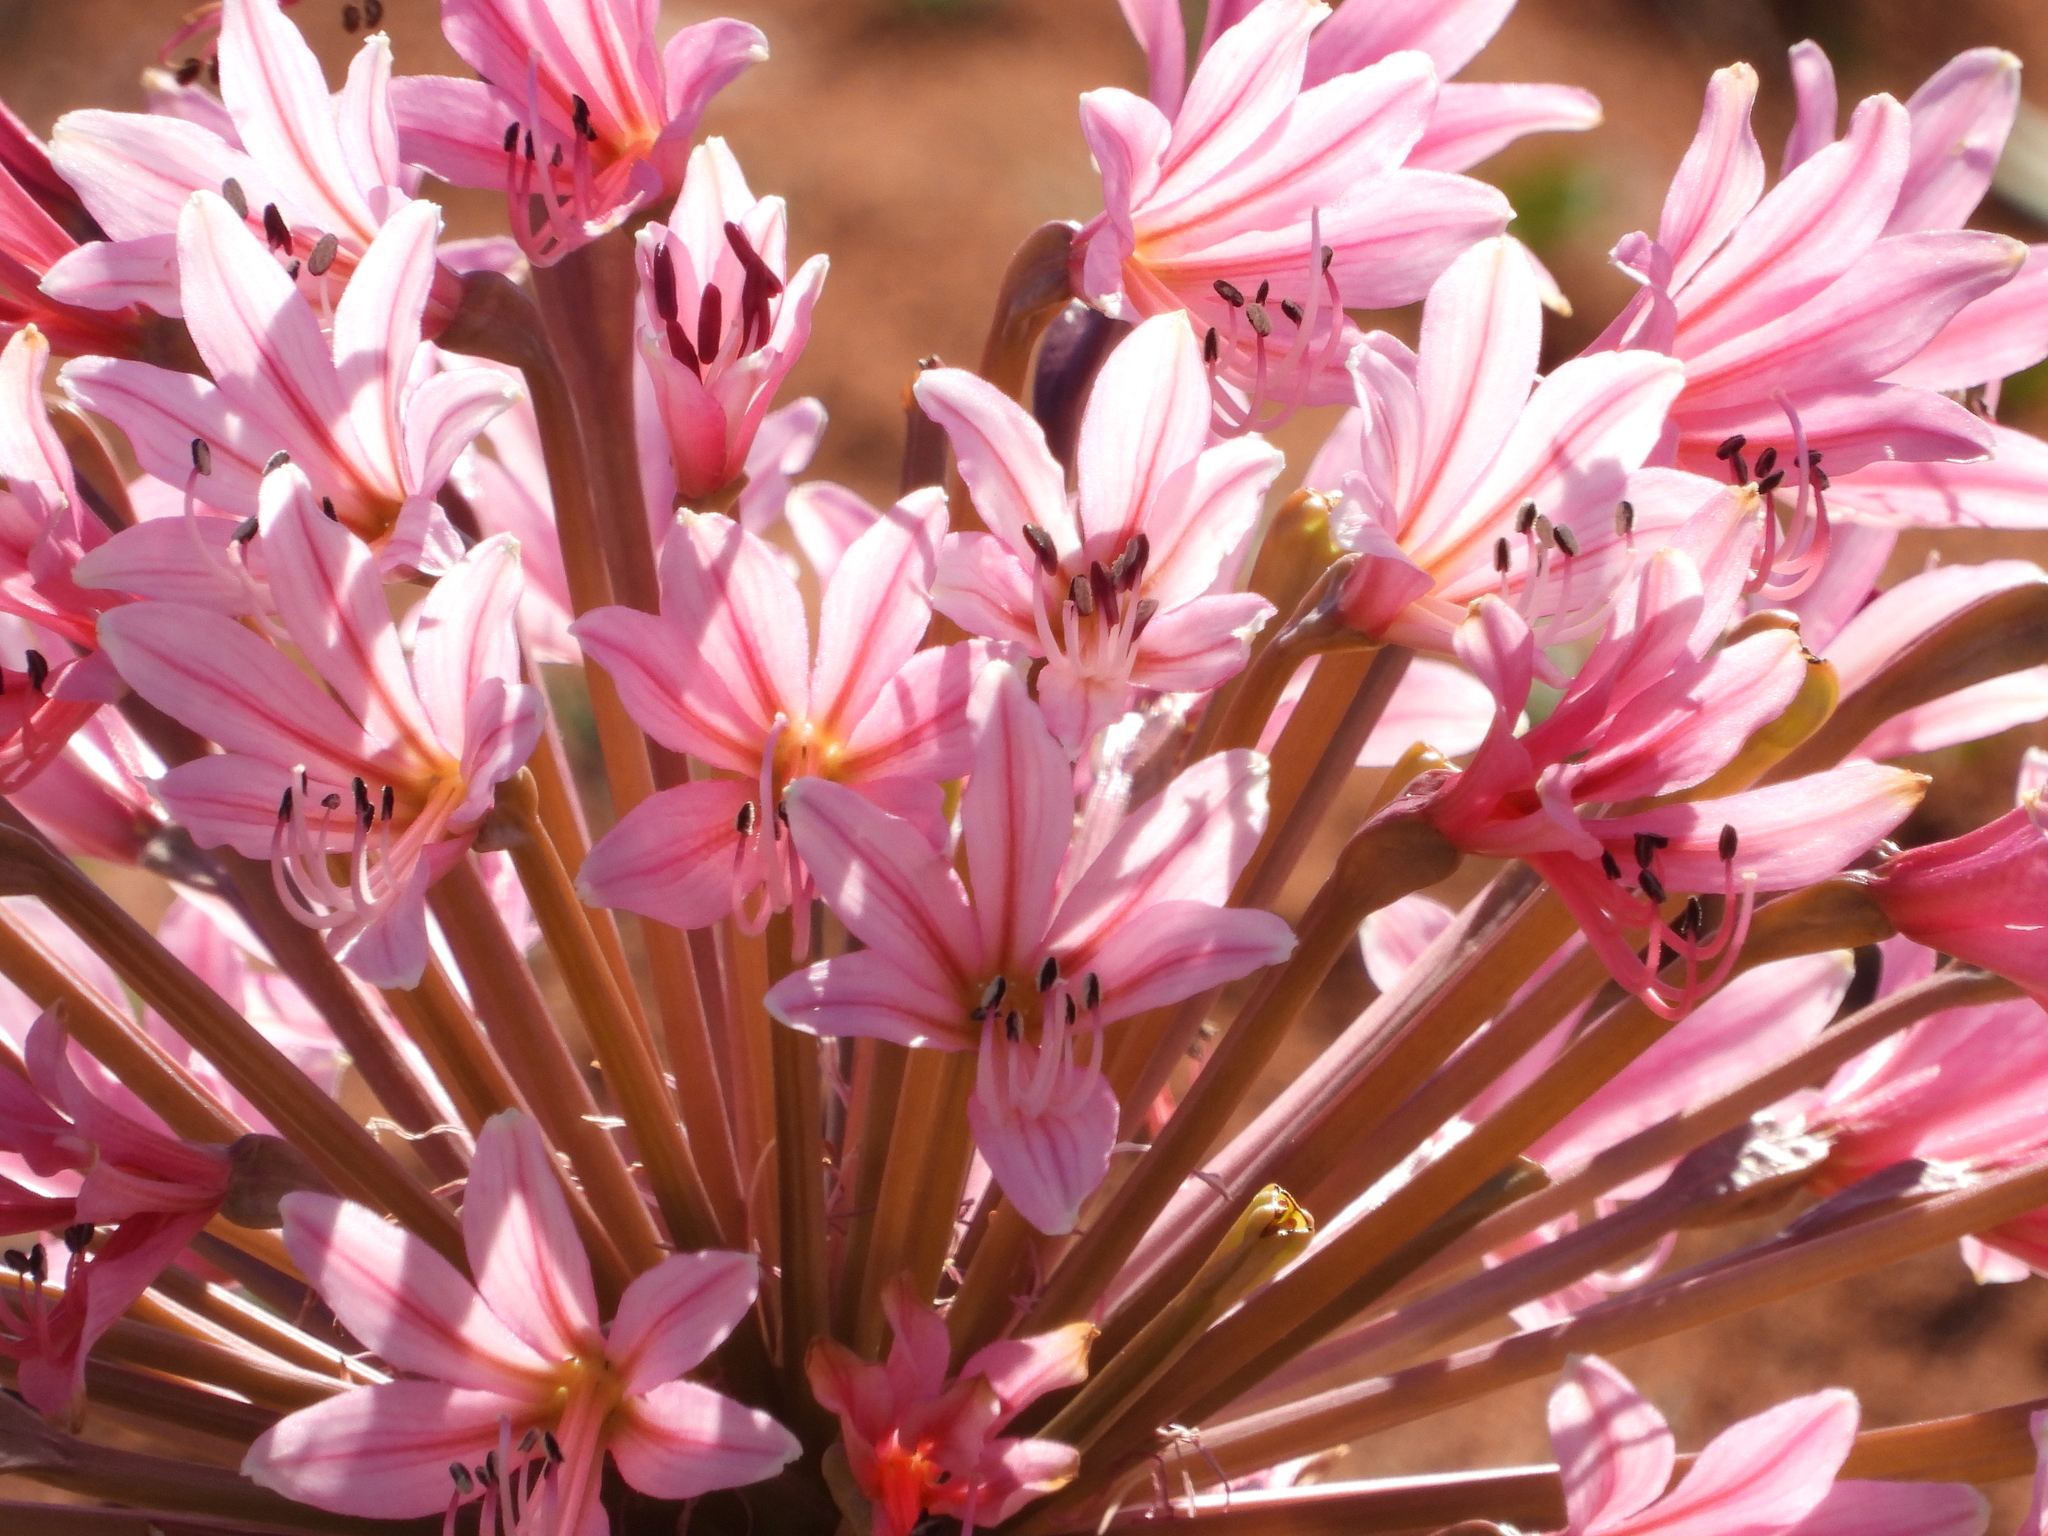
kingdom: Plantae
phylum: Tracheophyta
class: Liliopsida
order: Asparagales
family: Amaryllidaceae
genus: Brunsvigia
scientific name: Brunsvigia bosmaniae
